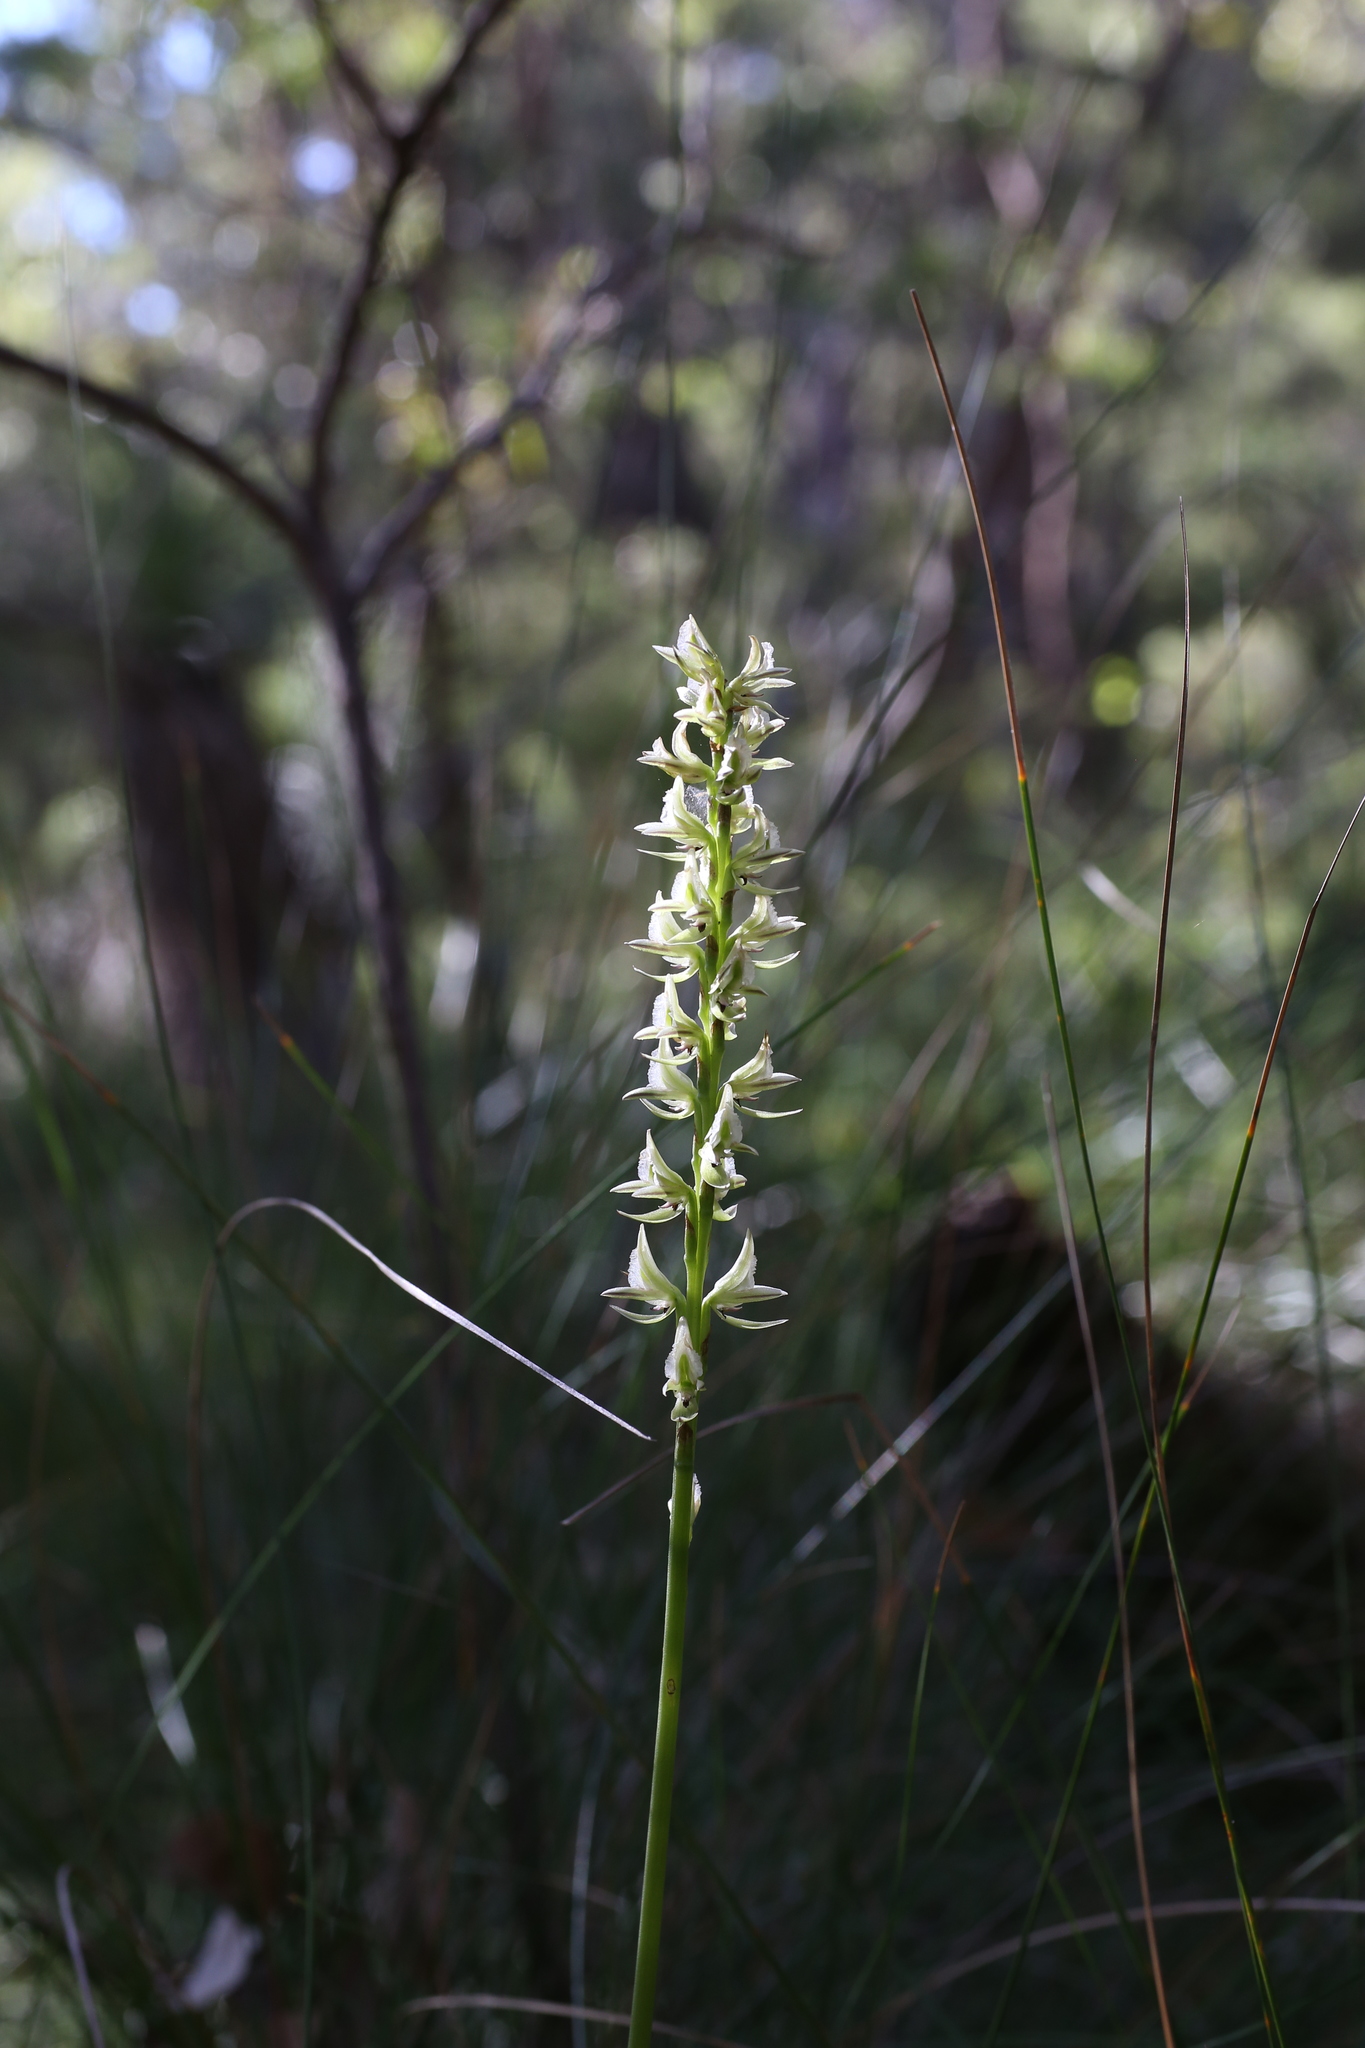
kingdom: Plantae
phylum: Tracheophyta
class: Liliopsida
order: Asparagales
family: Orchidaceae
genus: Prasophyllum
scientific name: Prasophyllum brownii
